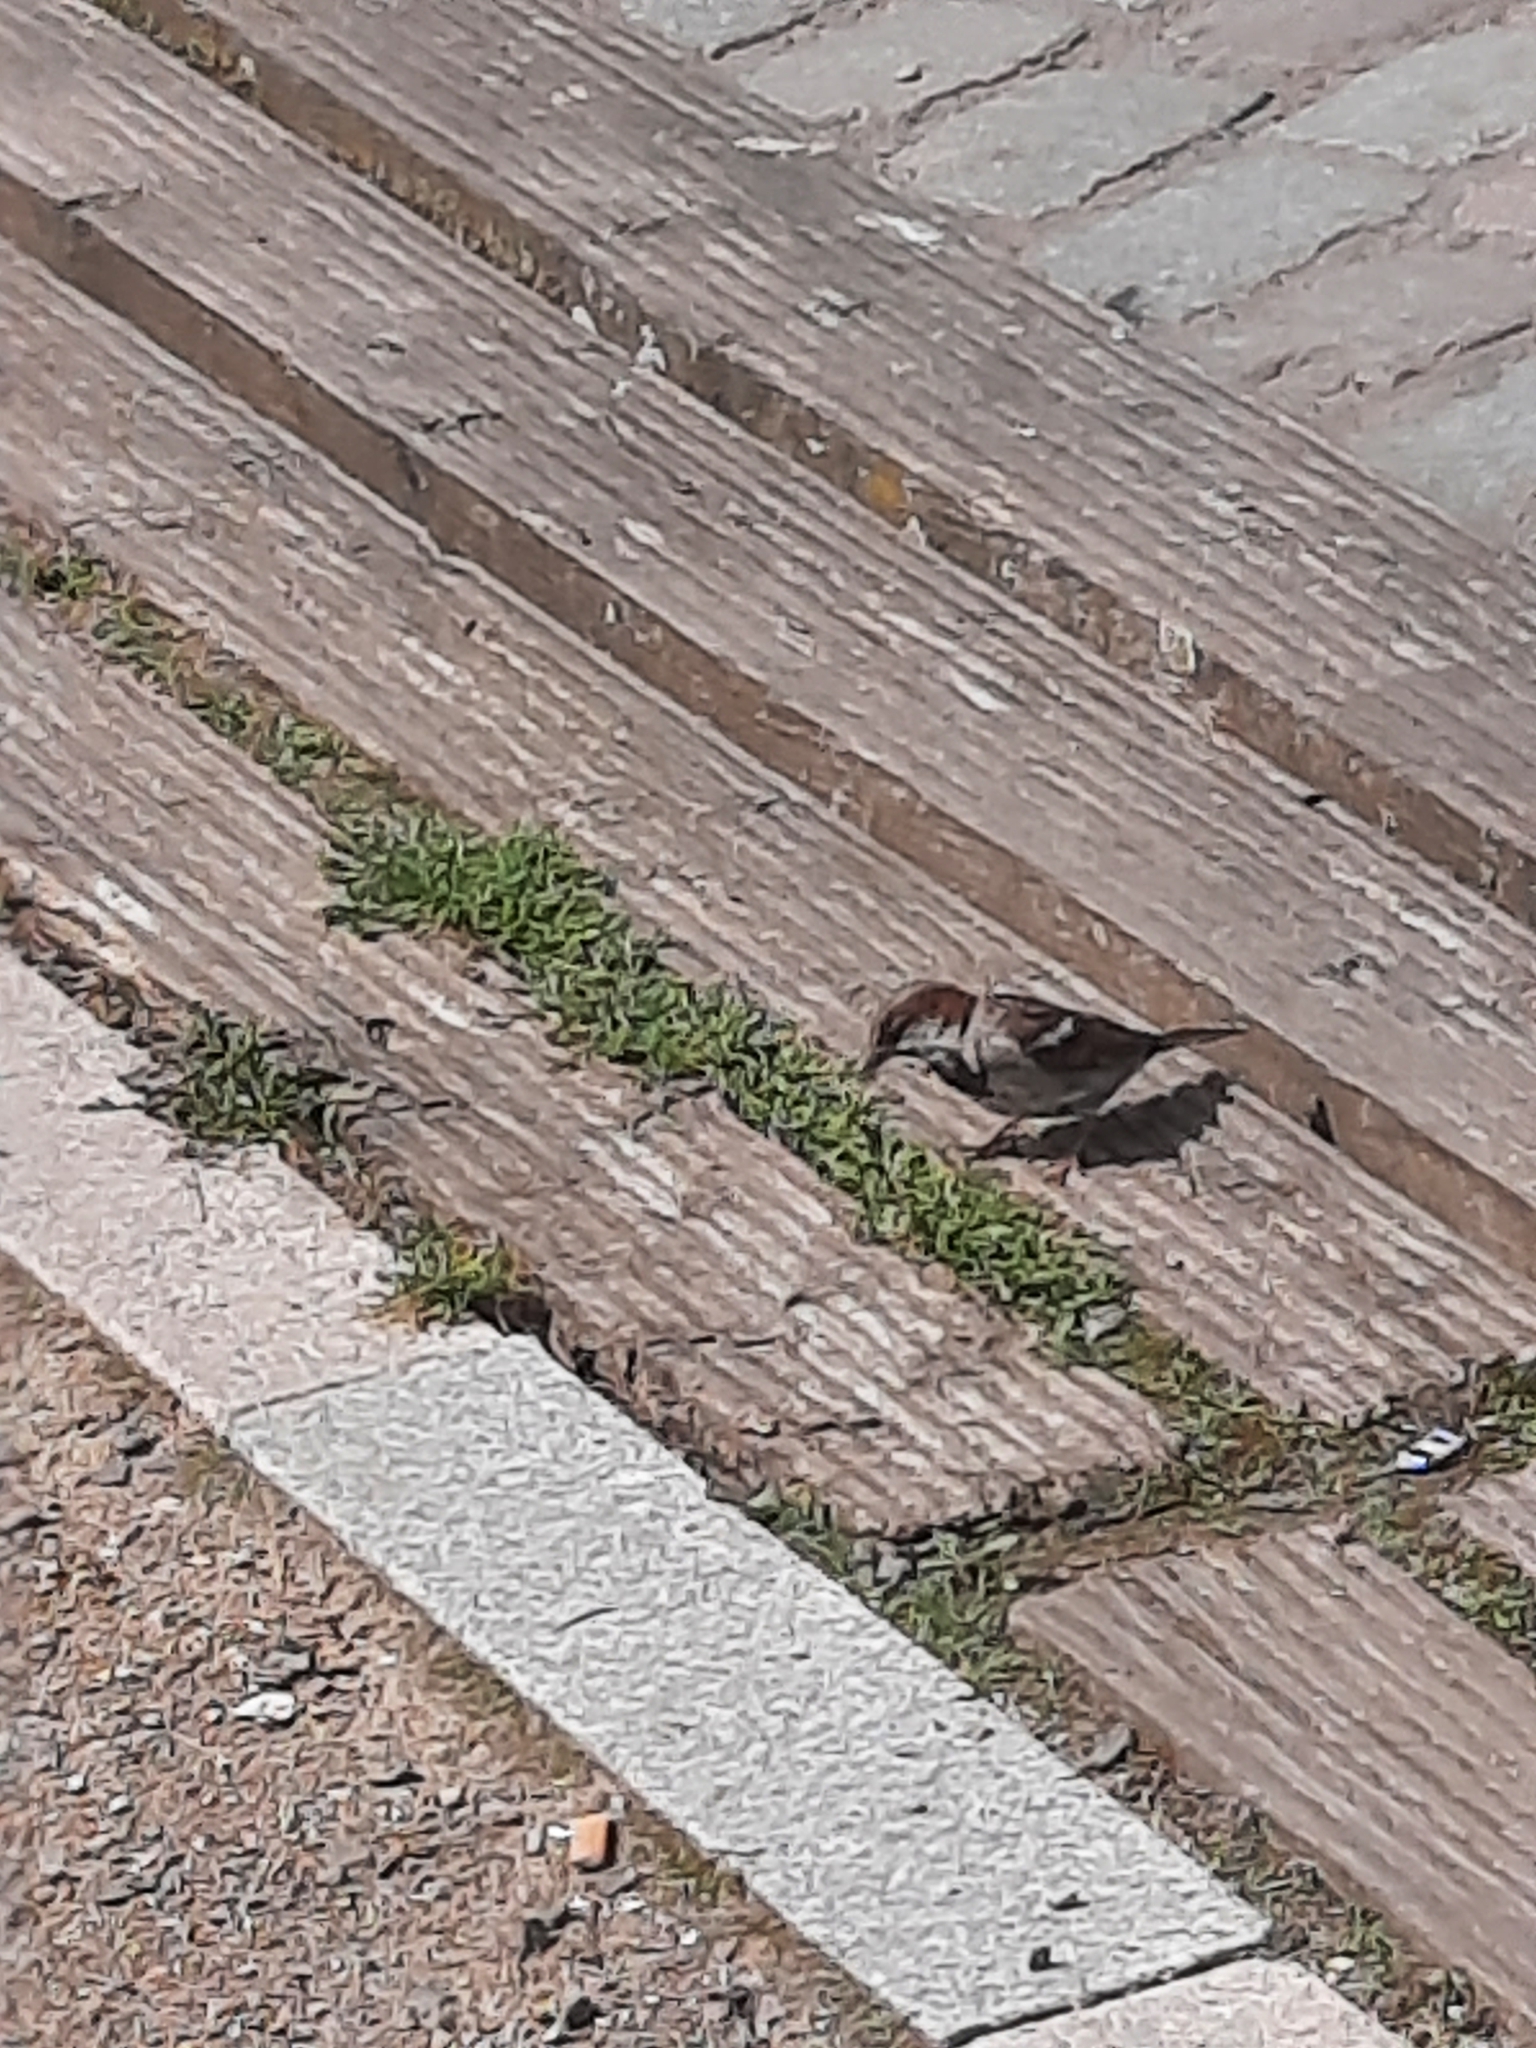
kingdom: Animalia
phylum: Chordata
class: Aves
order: Passeriformes
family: Passeridae
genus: Passer
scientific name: Passer domesticus
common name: House sparrow
